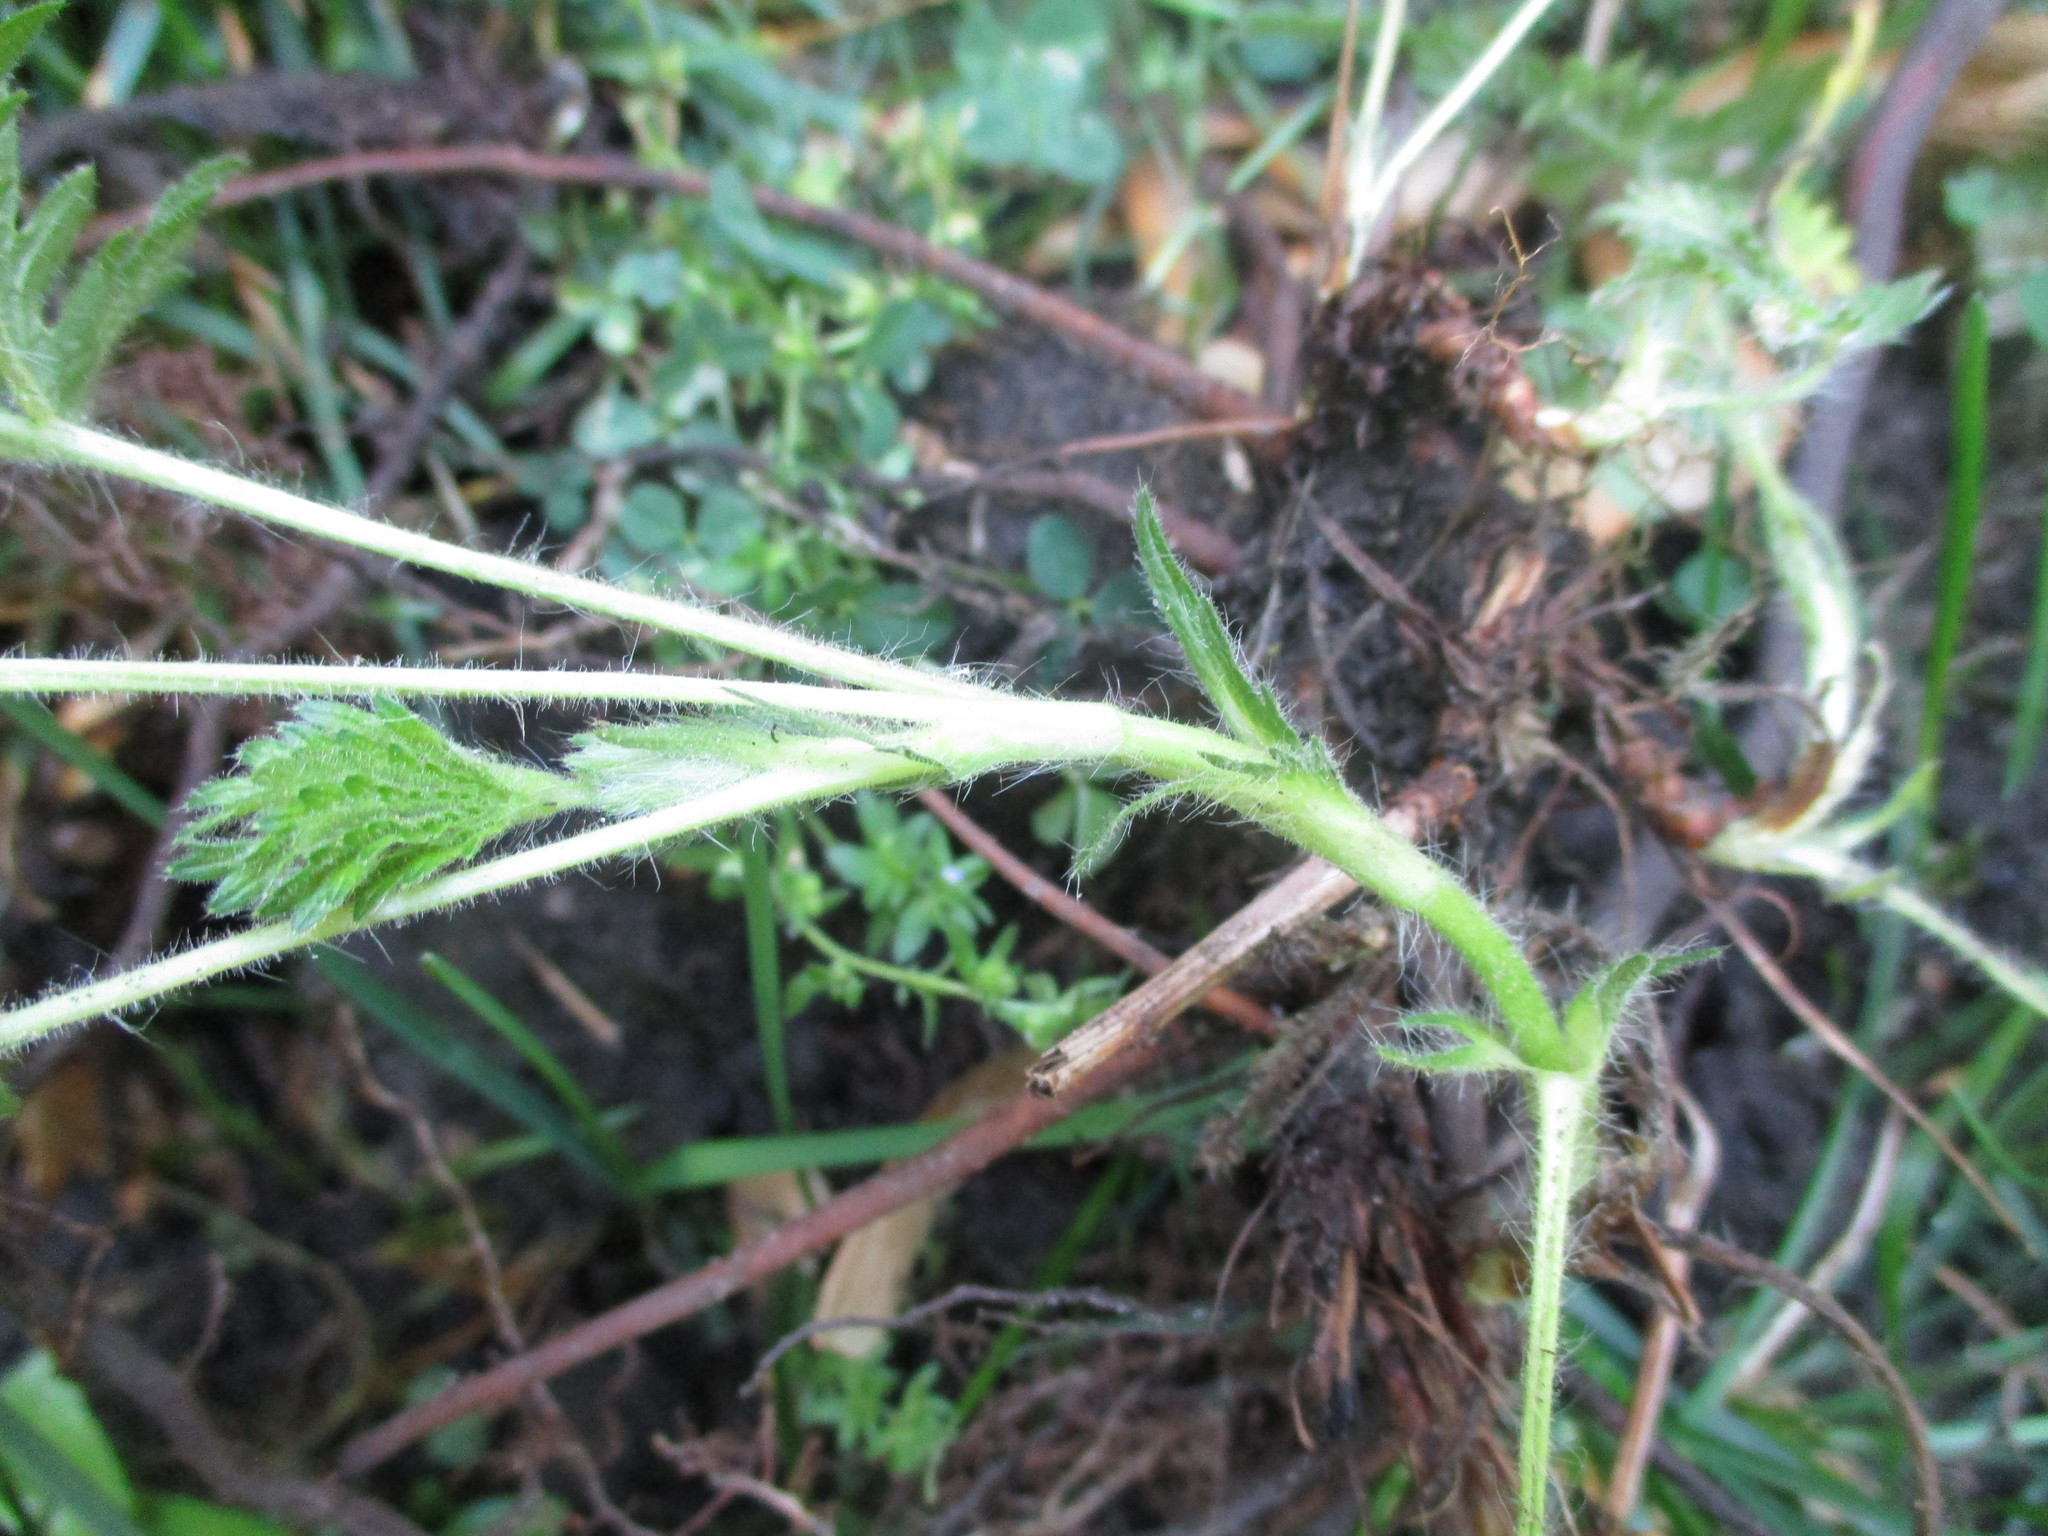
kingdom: Plantae
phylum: Tracheophyta
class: Magnoliopsida
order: Rosales
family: Rosaceae
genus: Potentilla
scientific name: Potentilla recta
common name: Sulphur cinquefoil
